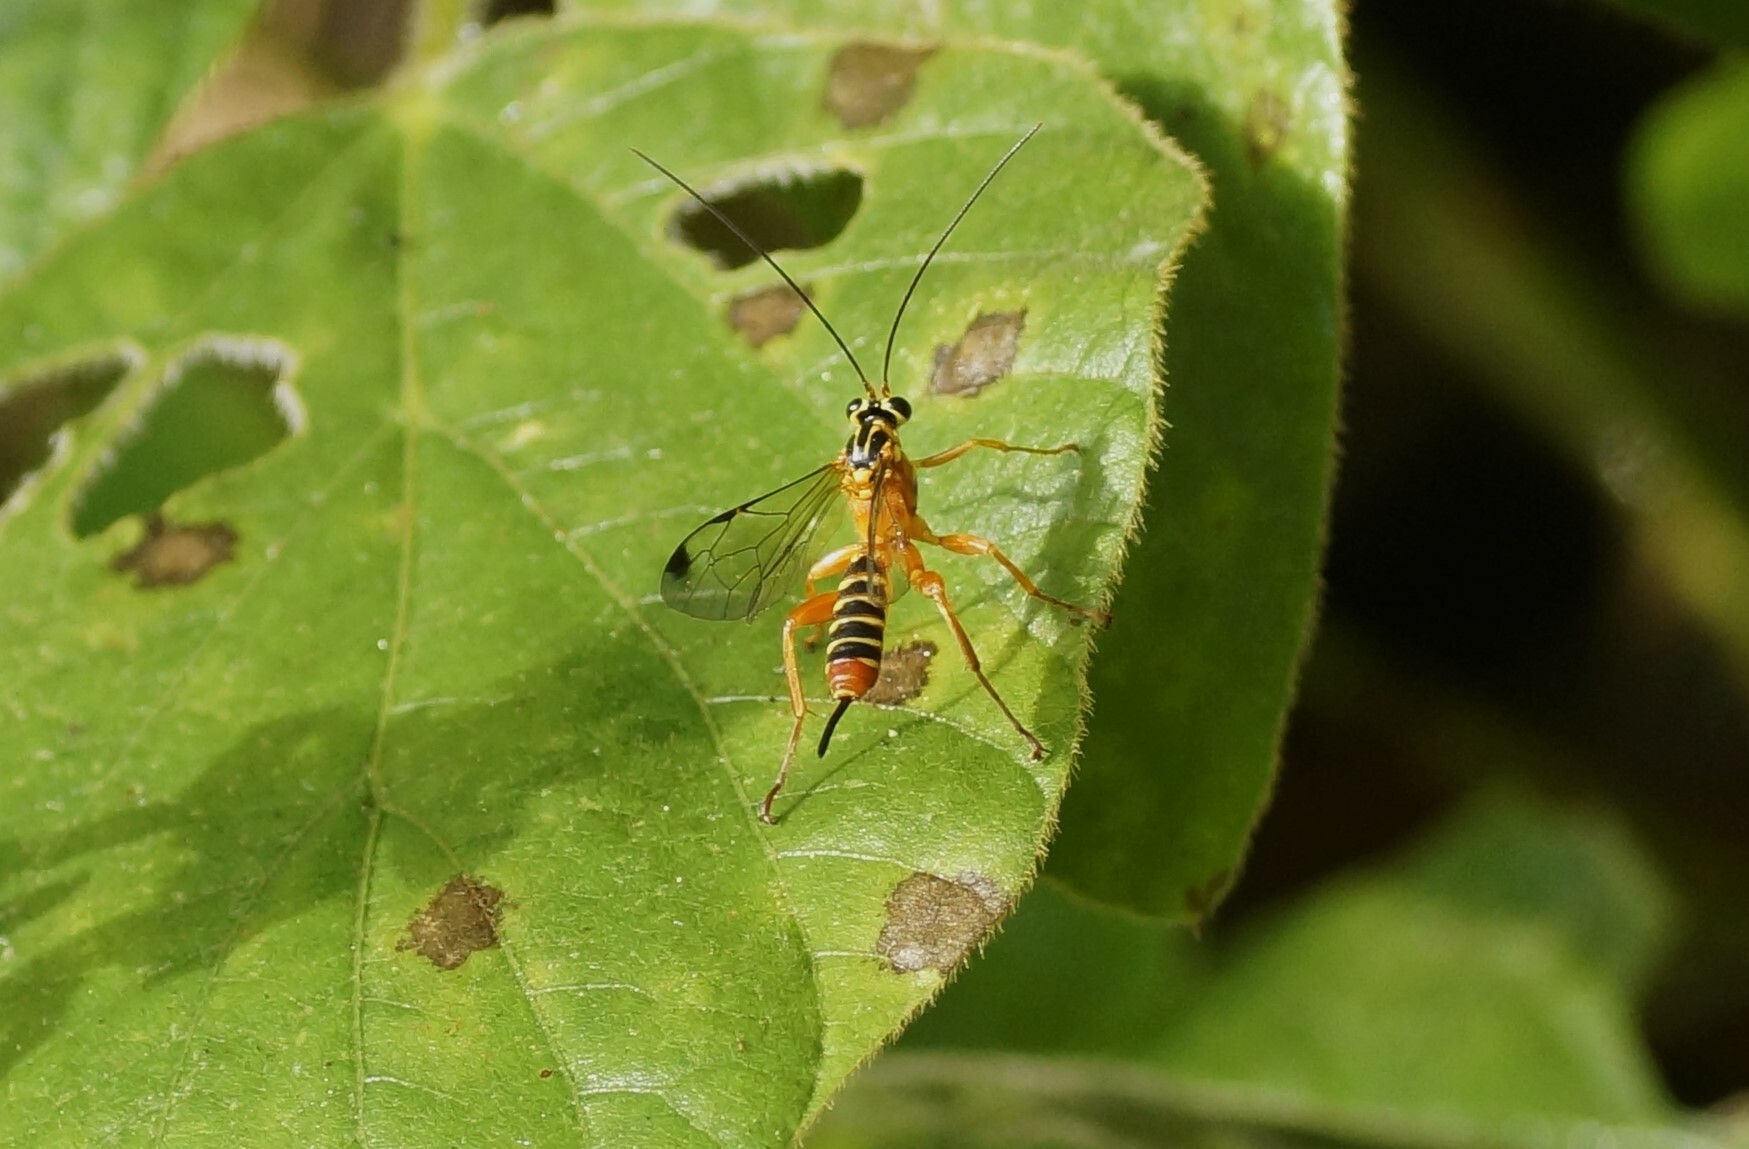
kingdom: Animalia
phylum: Arthropoda
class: Insecta
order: Hymenoptera
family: Ichneumonidae
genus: Echthromorpha
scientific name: Echthromorpha agrestoria
